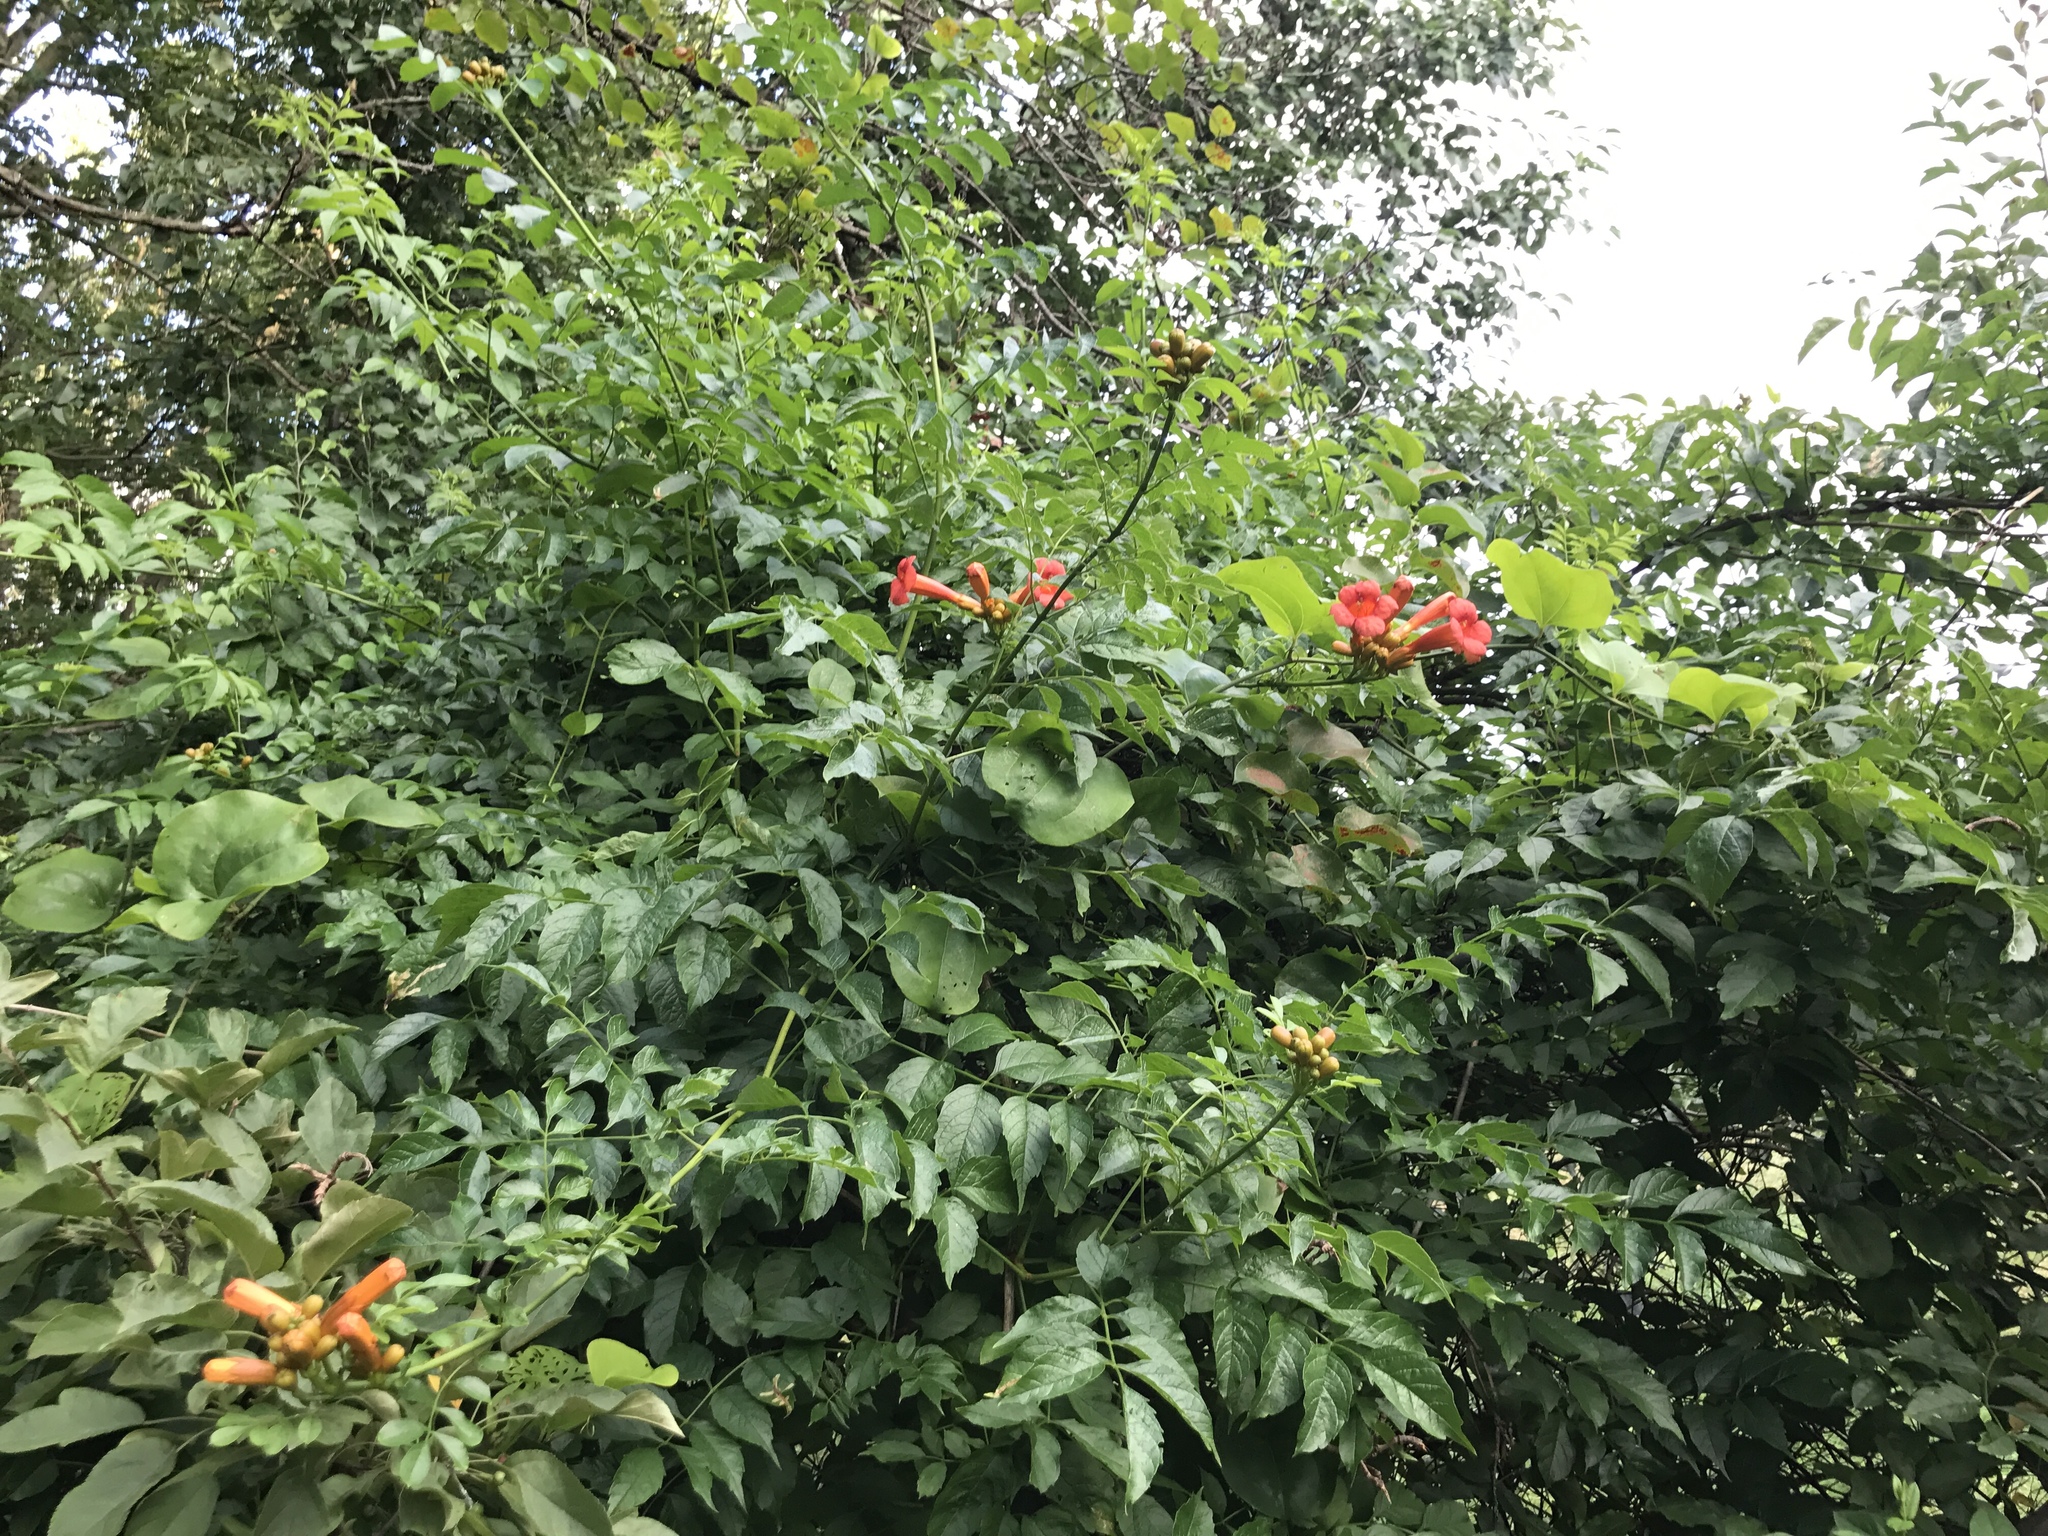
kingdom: Plantae
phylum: Tracheophyta
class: Magnoliopsida
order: Lamiales
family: Bignoniaceae
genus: Campsis
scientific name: Campsis radicans
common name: Trumpet-creeper
